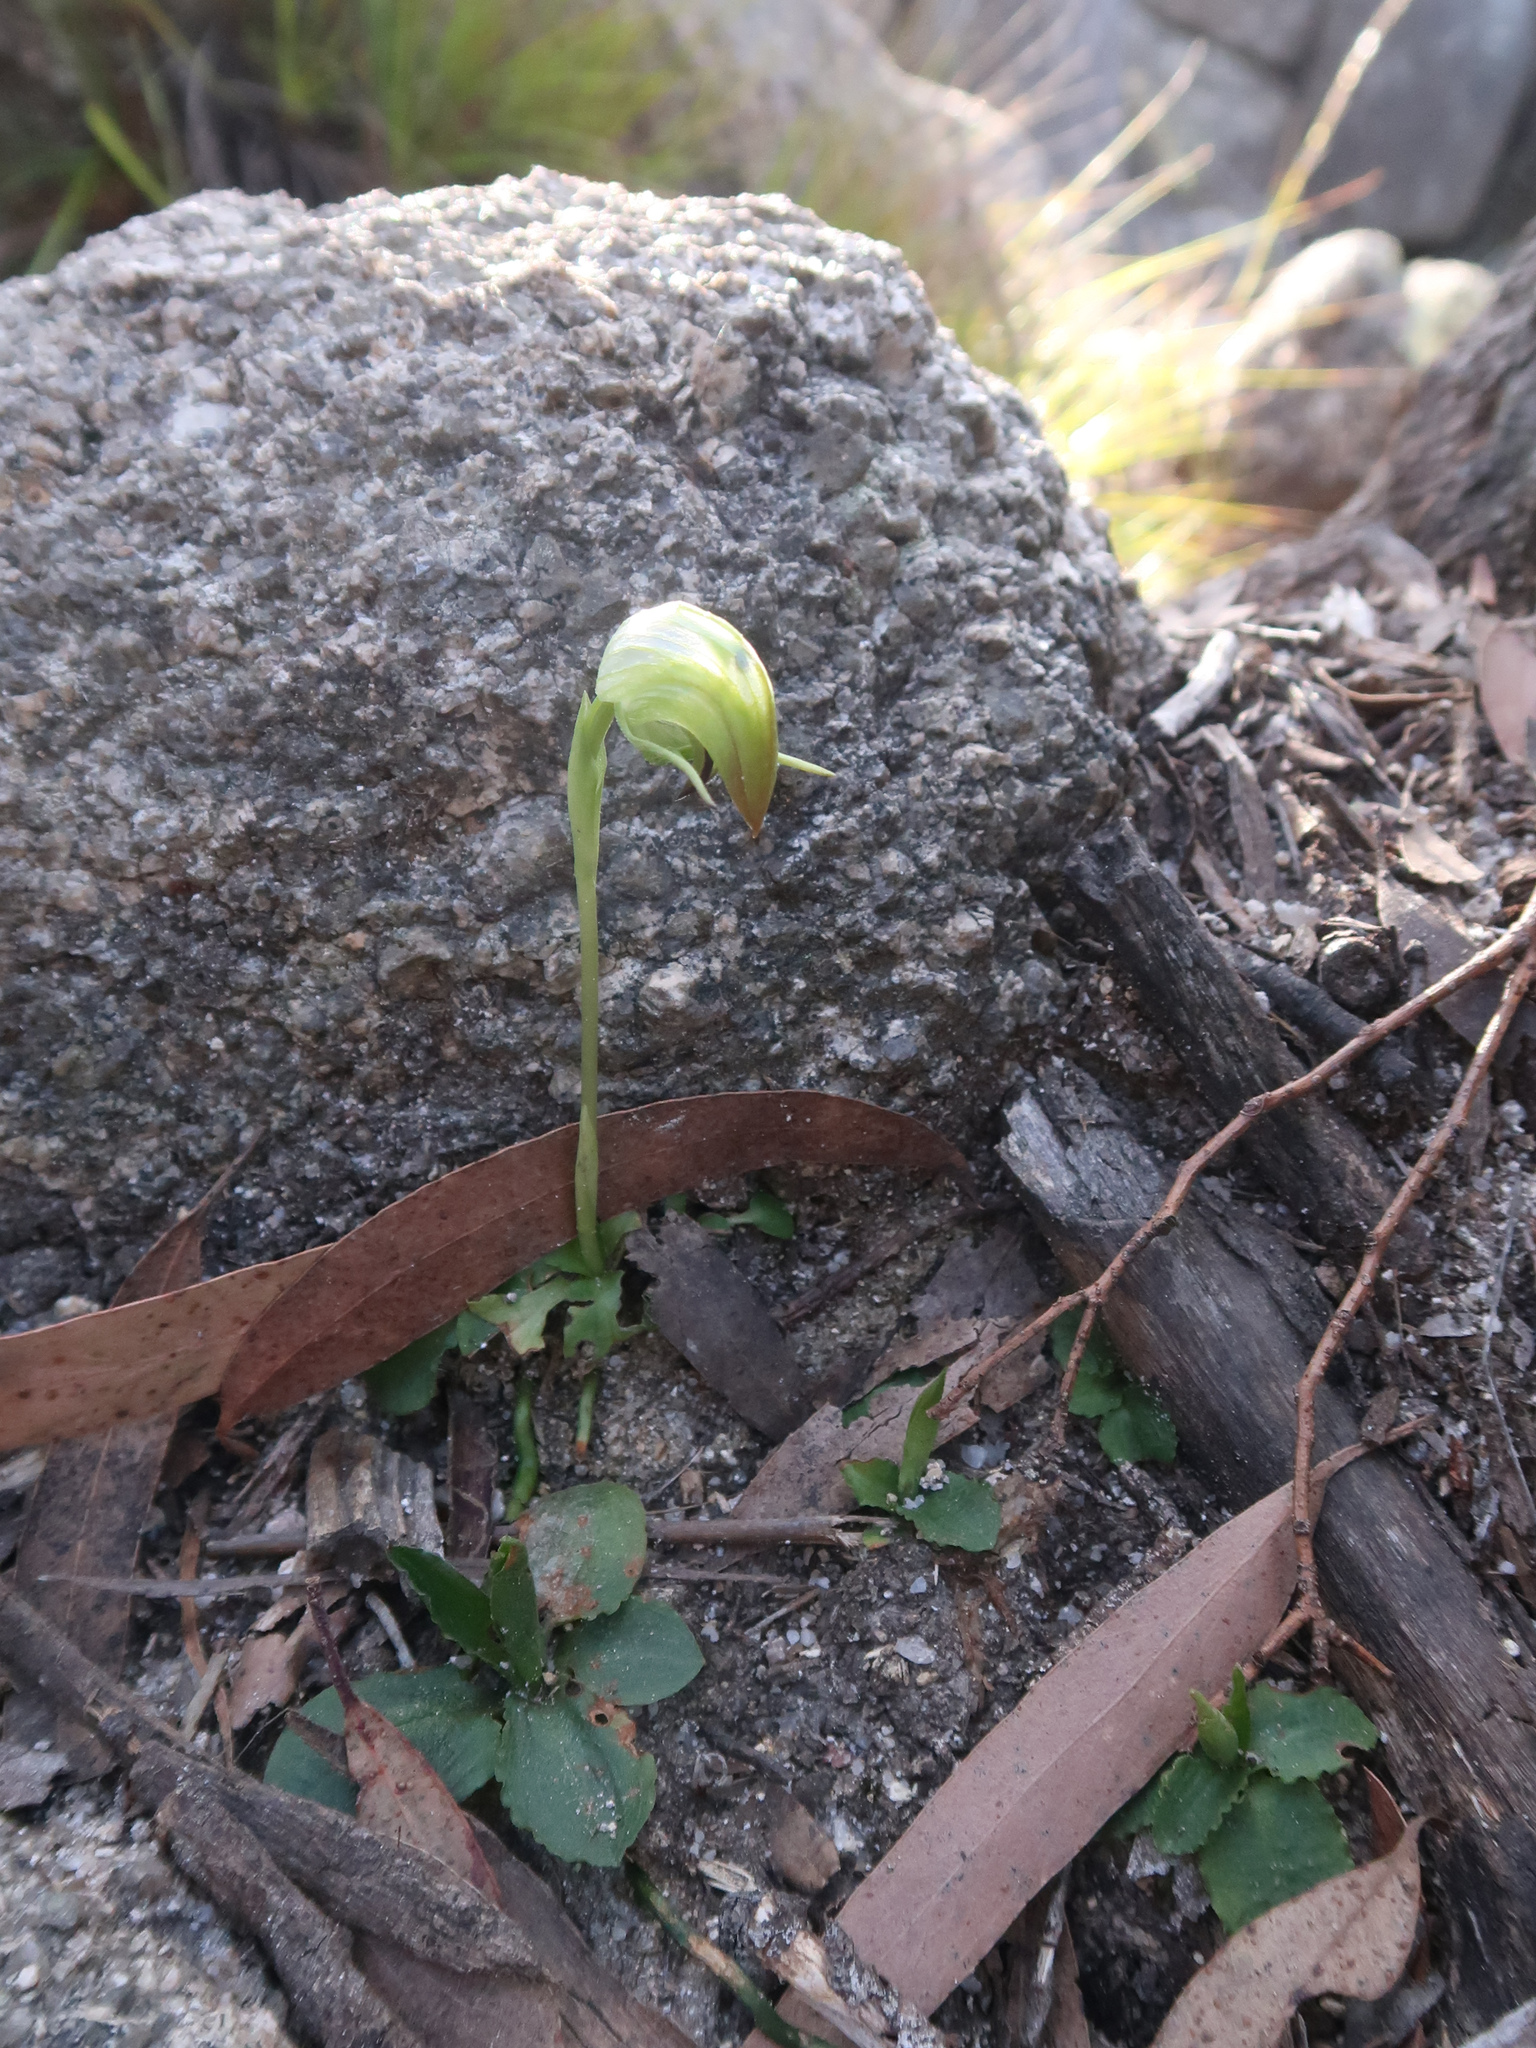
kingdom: Plantae
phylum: Tracheophyta
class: Liliopsida
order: Asparagales
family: Orchidaceae
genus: Pterostylis
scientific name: Pterostylis nutans
